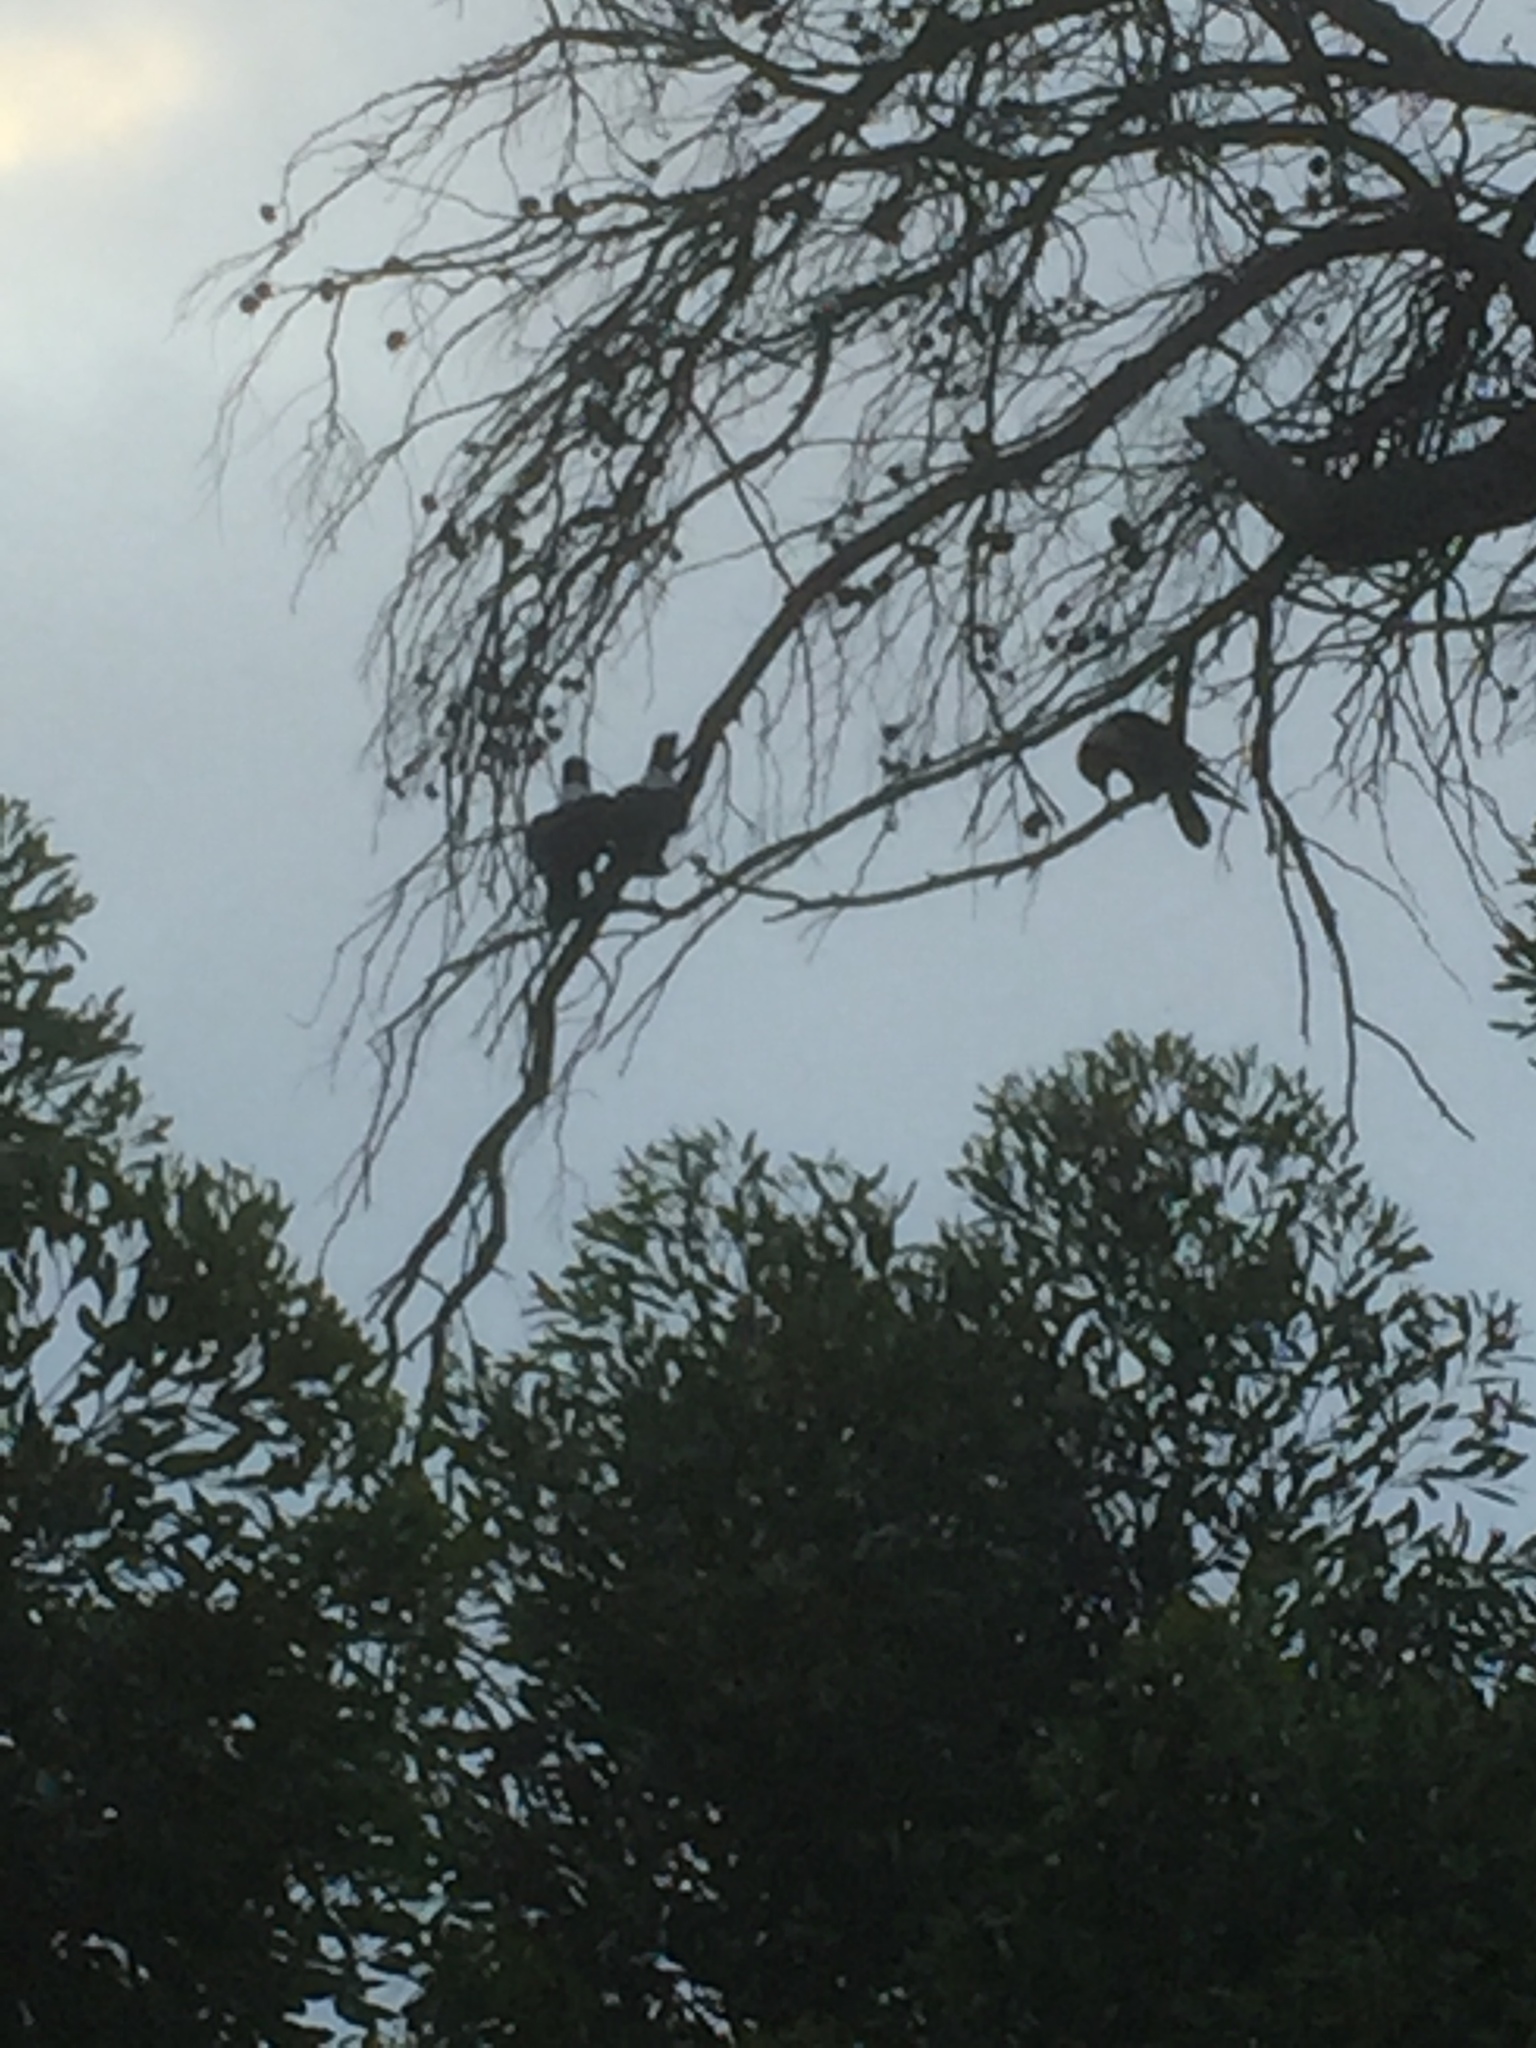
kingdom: Animalia
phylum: Chordata
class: Aves
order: Passeriformes
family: Corvidae
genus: Corvus
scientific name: Corvus albus
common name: Pied crow
